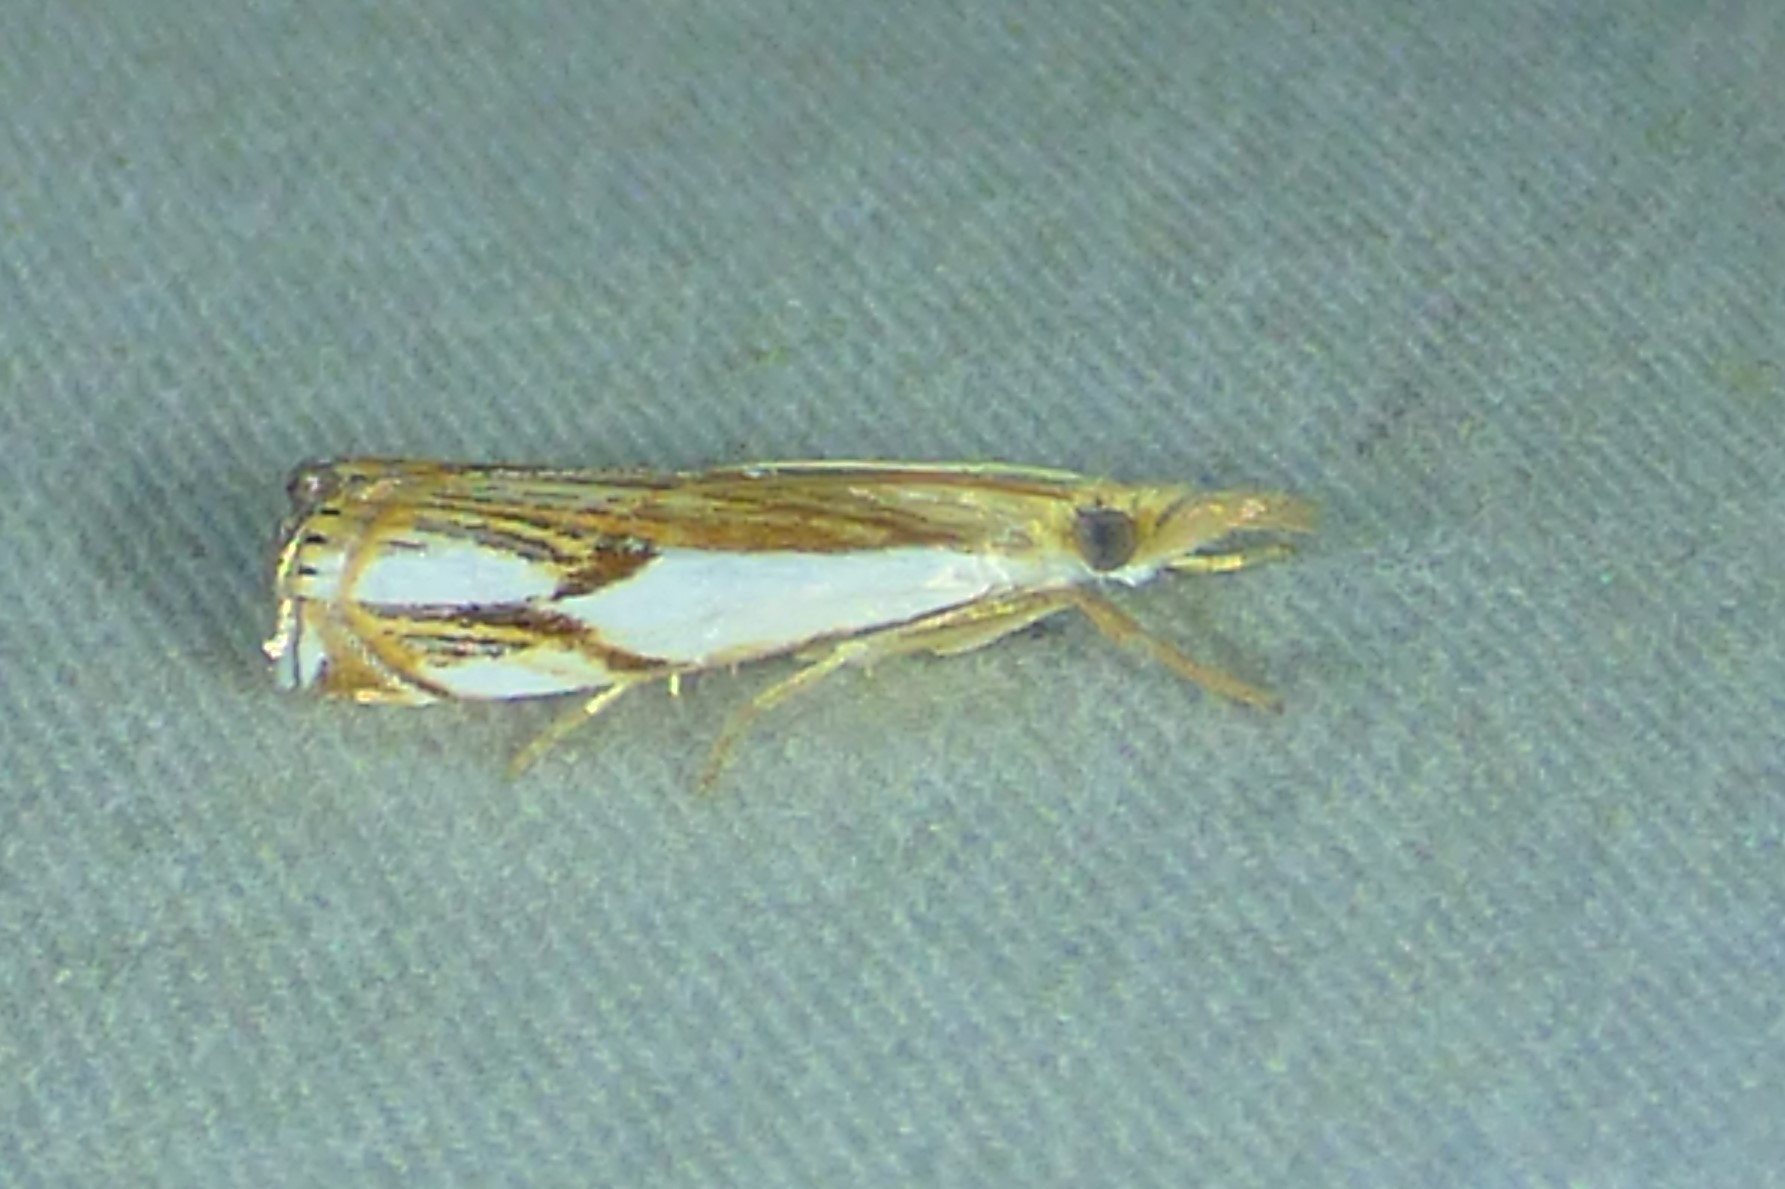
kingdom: Animalia
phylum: Arthropoda
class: Insecta
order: Lepidoptera
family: Crambidae
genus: Crambus
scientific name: Crambus agitatellus
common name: Double-banded grass-veneer
